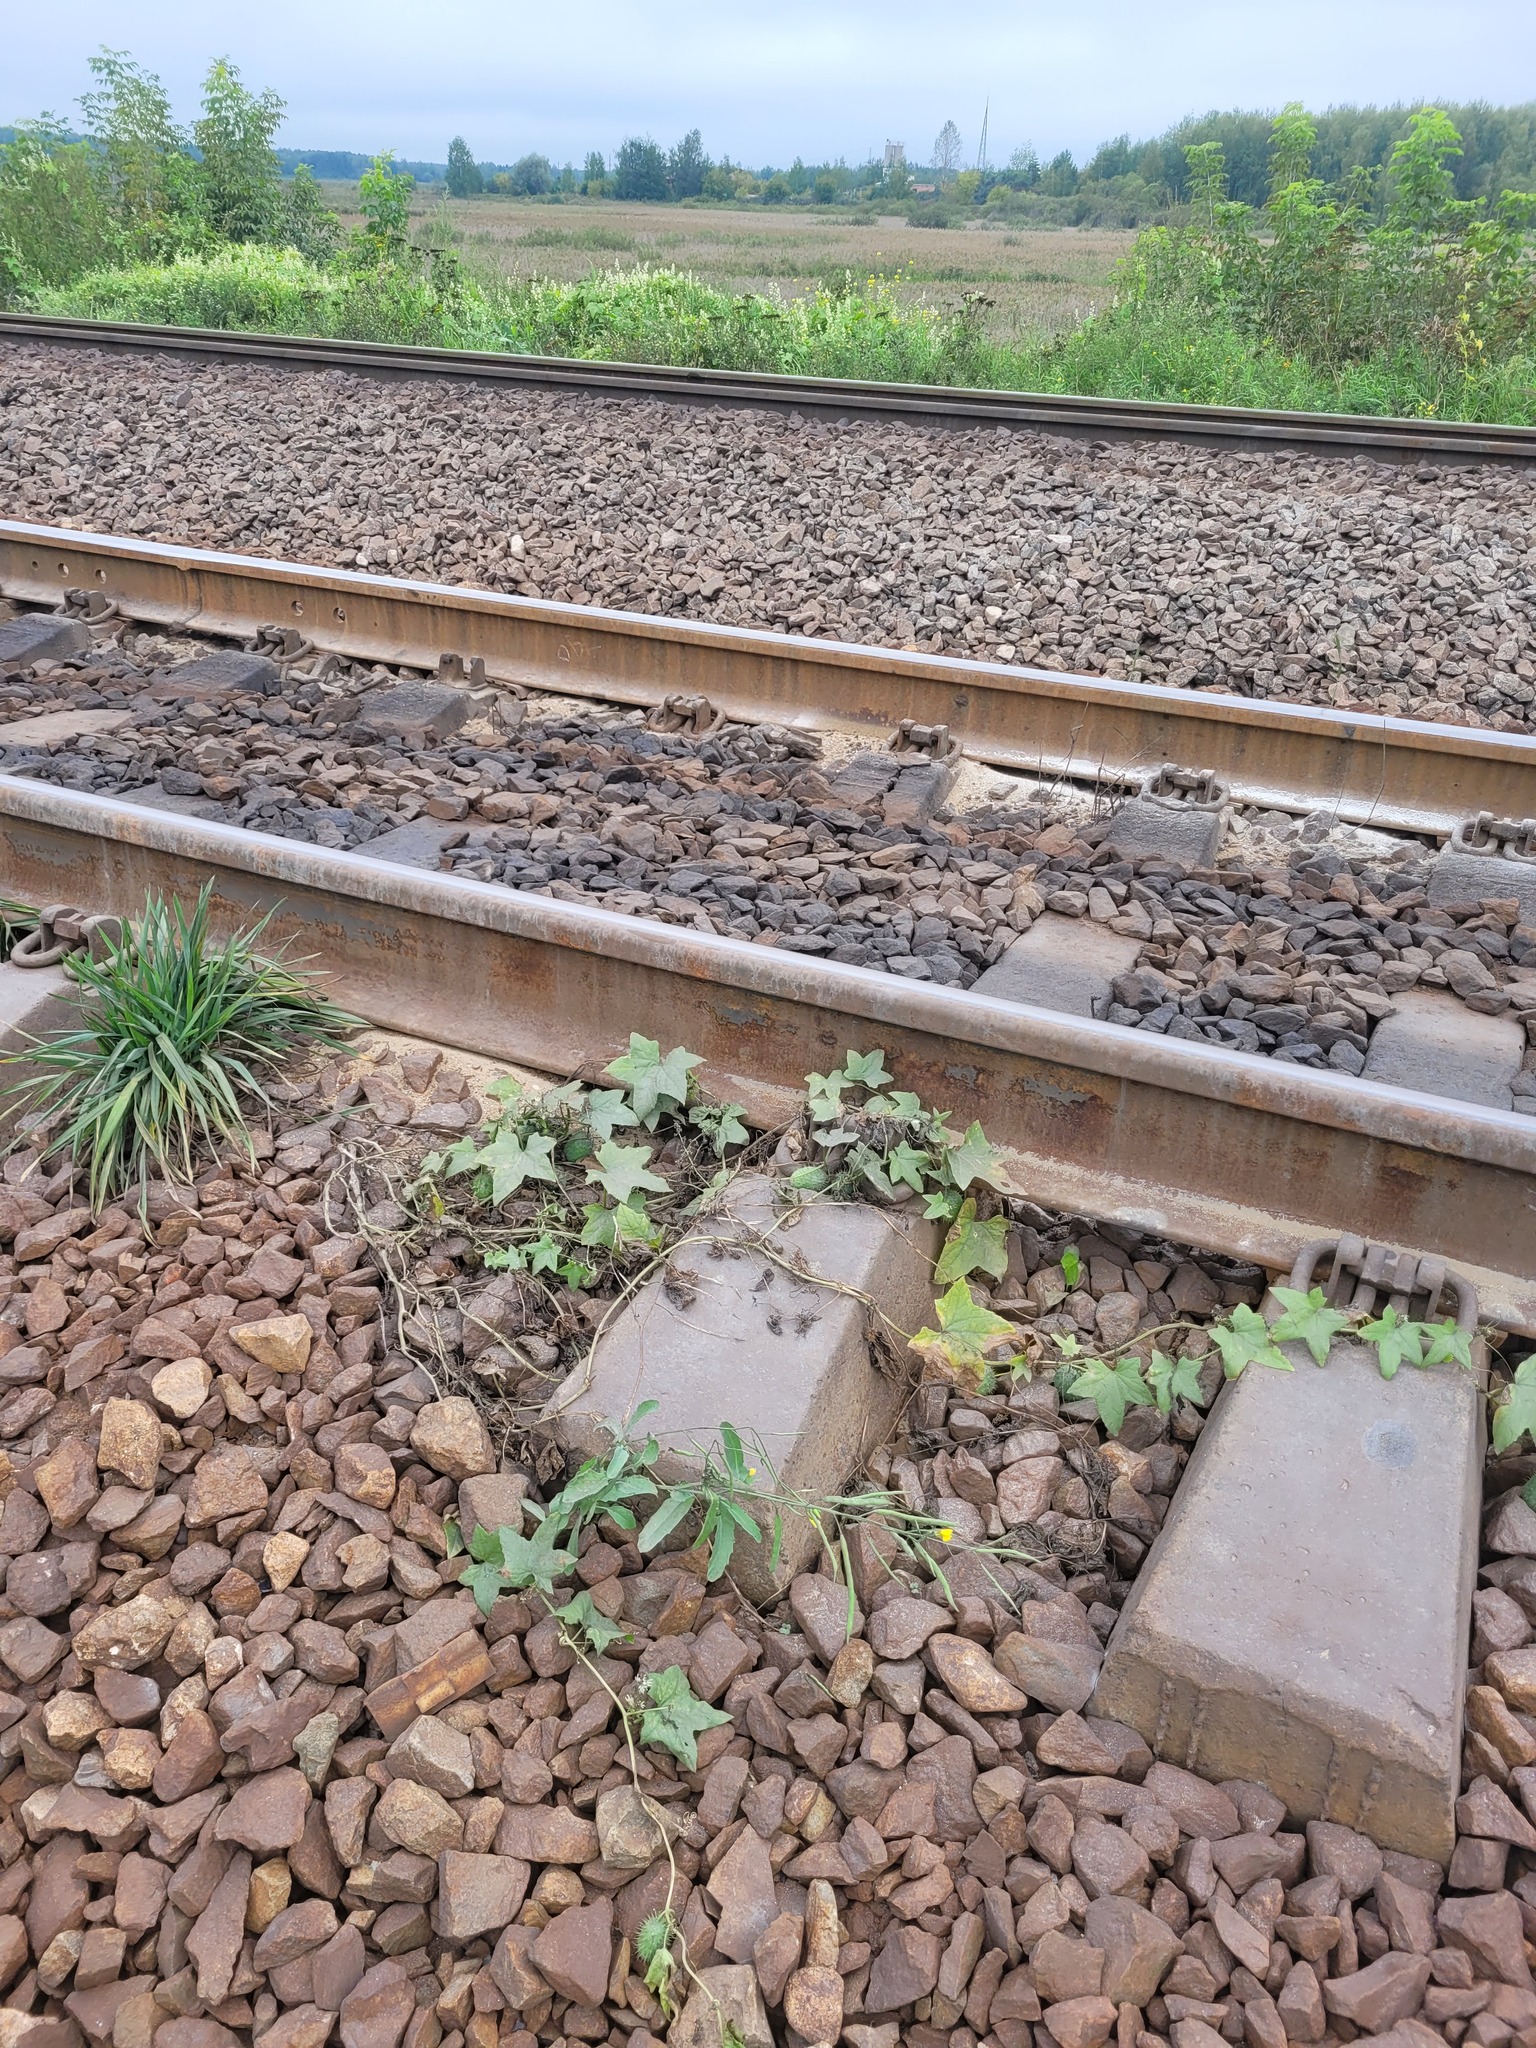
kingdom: Plantae
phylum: Tracheophyta
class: Magnoliopsida
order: Cucurbitales
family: Cucurbitaceae
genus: Echinocystis
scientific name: Echinocystis lobata
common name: Wild cucumber
